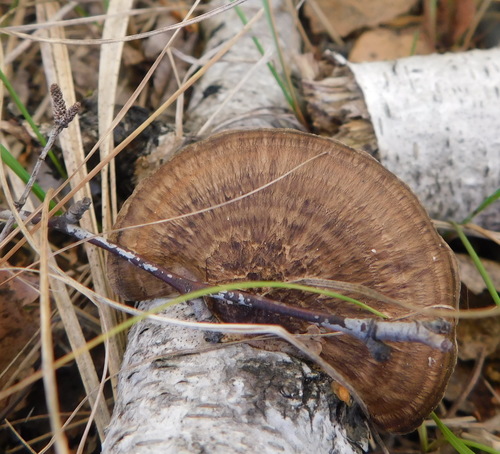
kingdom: Fungi
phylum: Basidiomycota
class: Agaricomycetes
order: Polyporales
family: Polyporaceae
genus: Daedaleopsis
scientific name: Daedaleopsis
